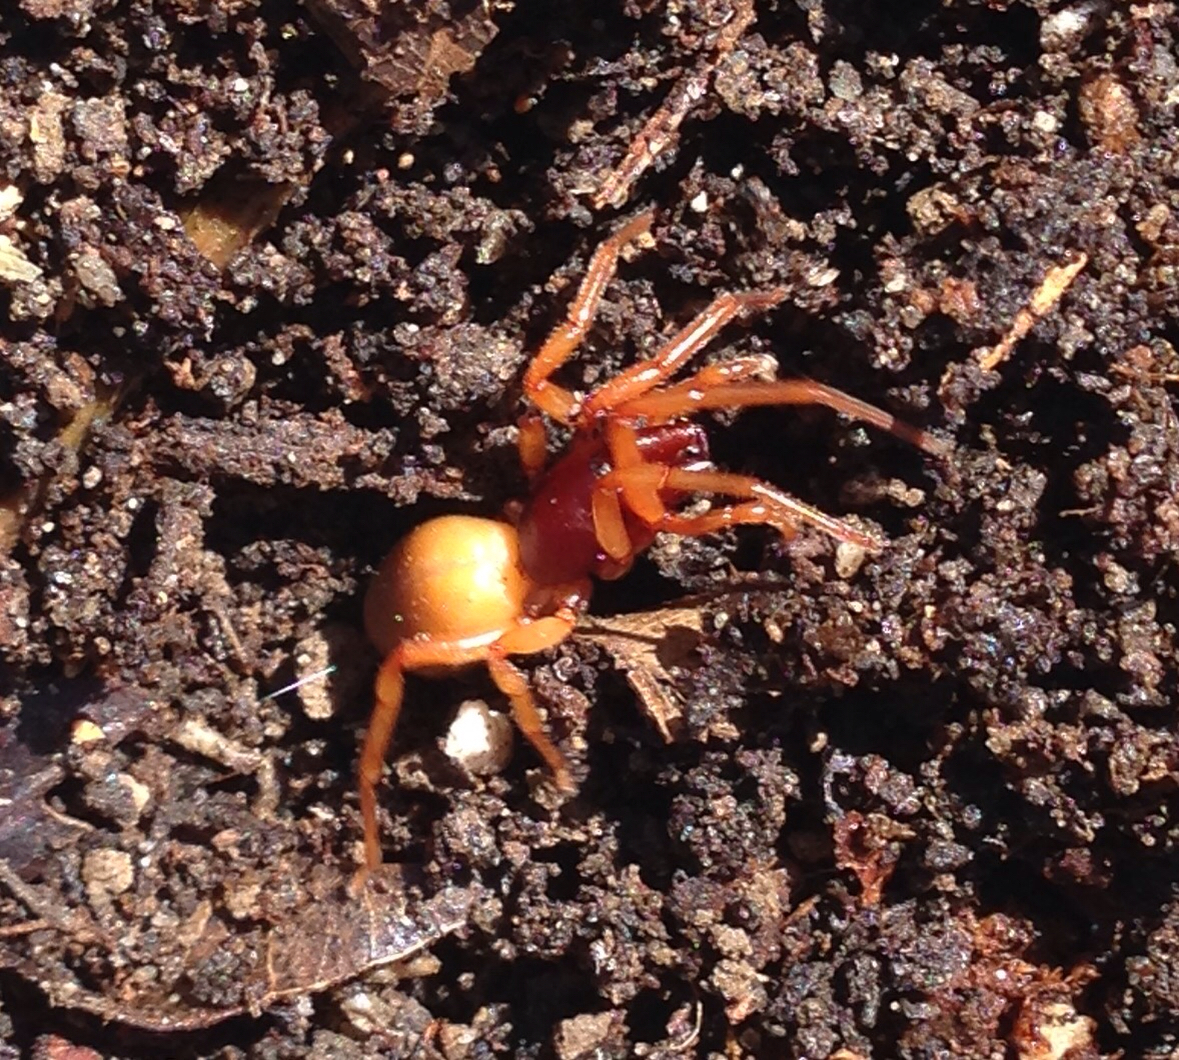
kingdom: Animalia
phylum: Arthropoda
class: Arachnida
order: Araneae
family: Dysderidae
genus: Dysdera
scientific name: Dysdera crocata
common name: Woodlouse spider
